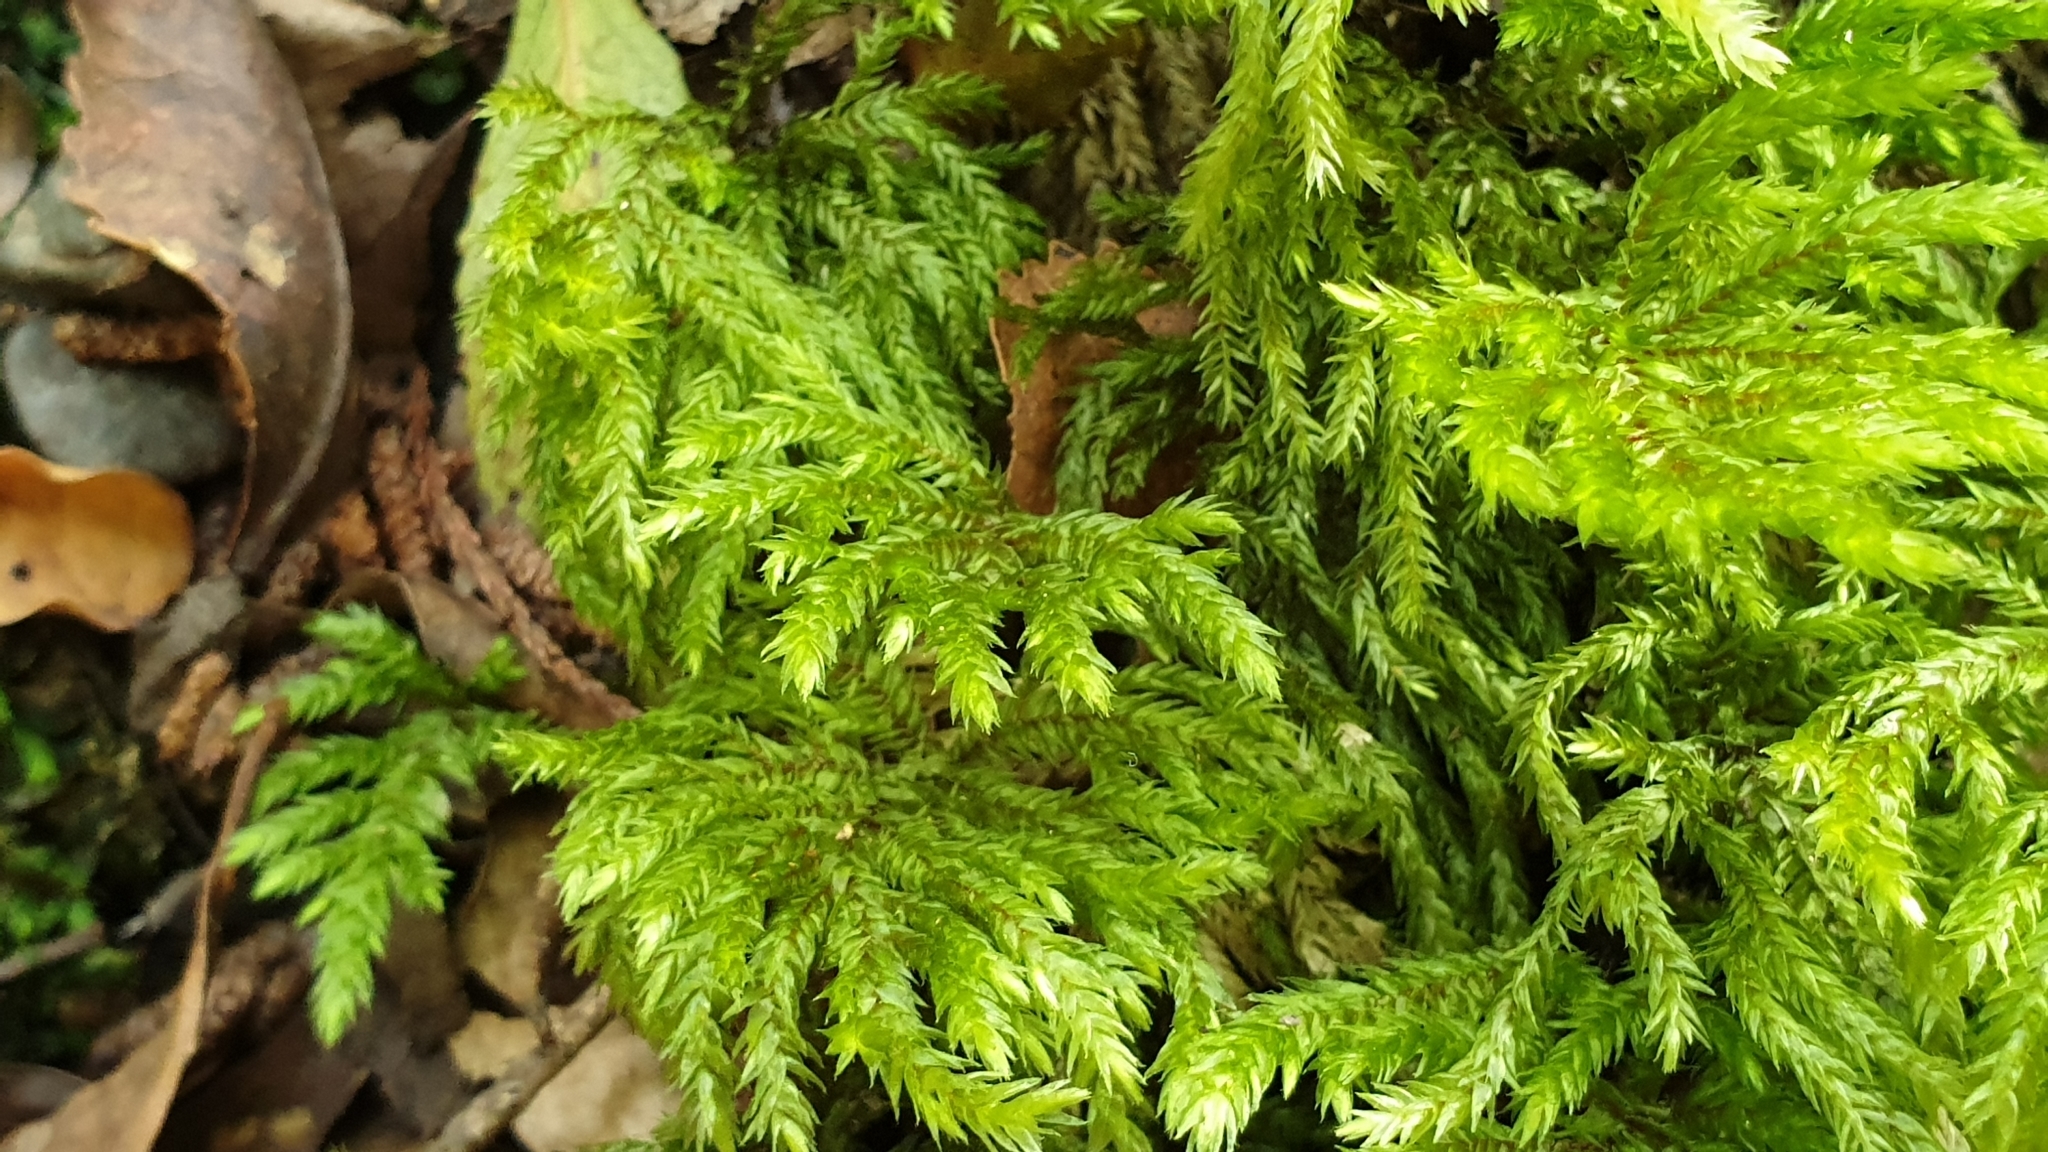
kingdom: Plantae
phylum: Bryophyta
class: Bryopsida
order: Hypnodendrales
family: Spiridentaceae
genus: Hypnodendron
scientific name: Hypnodendron arcuatum
